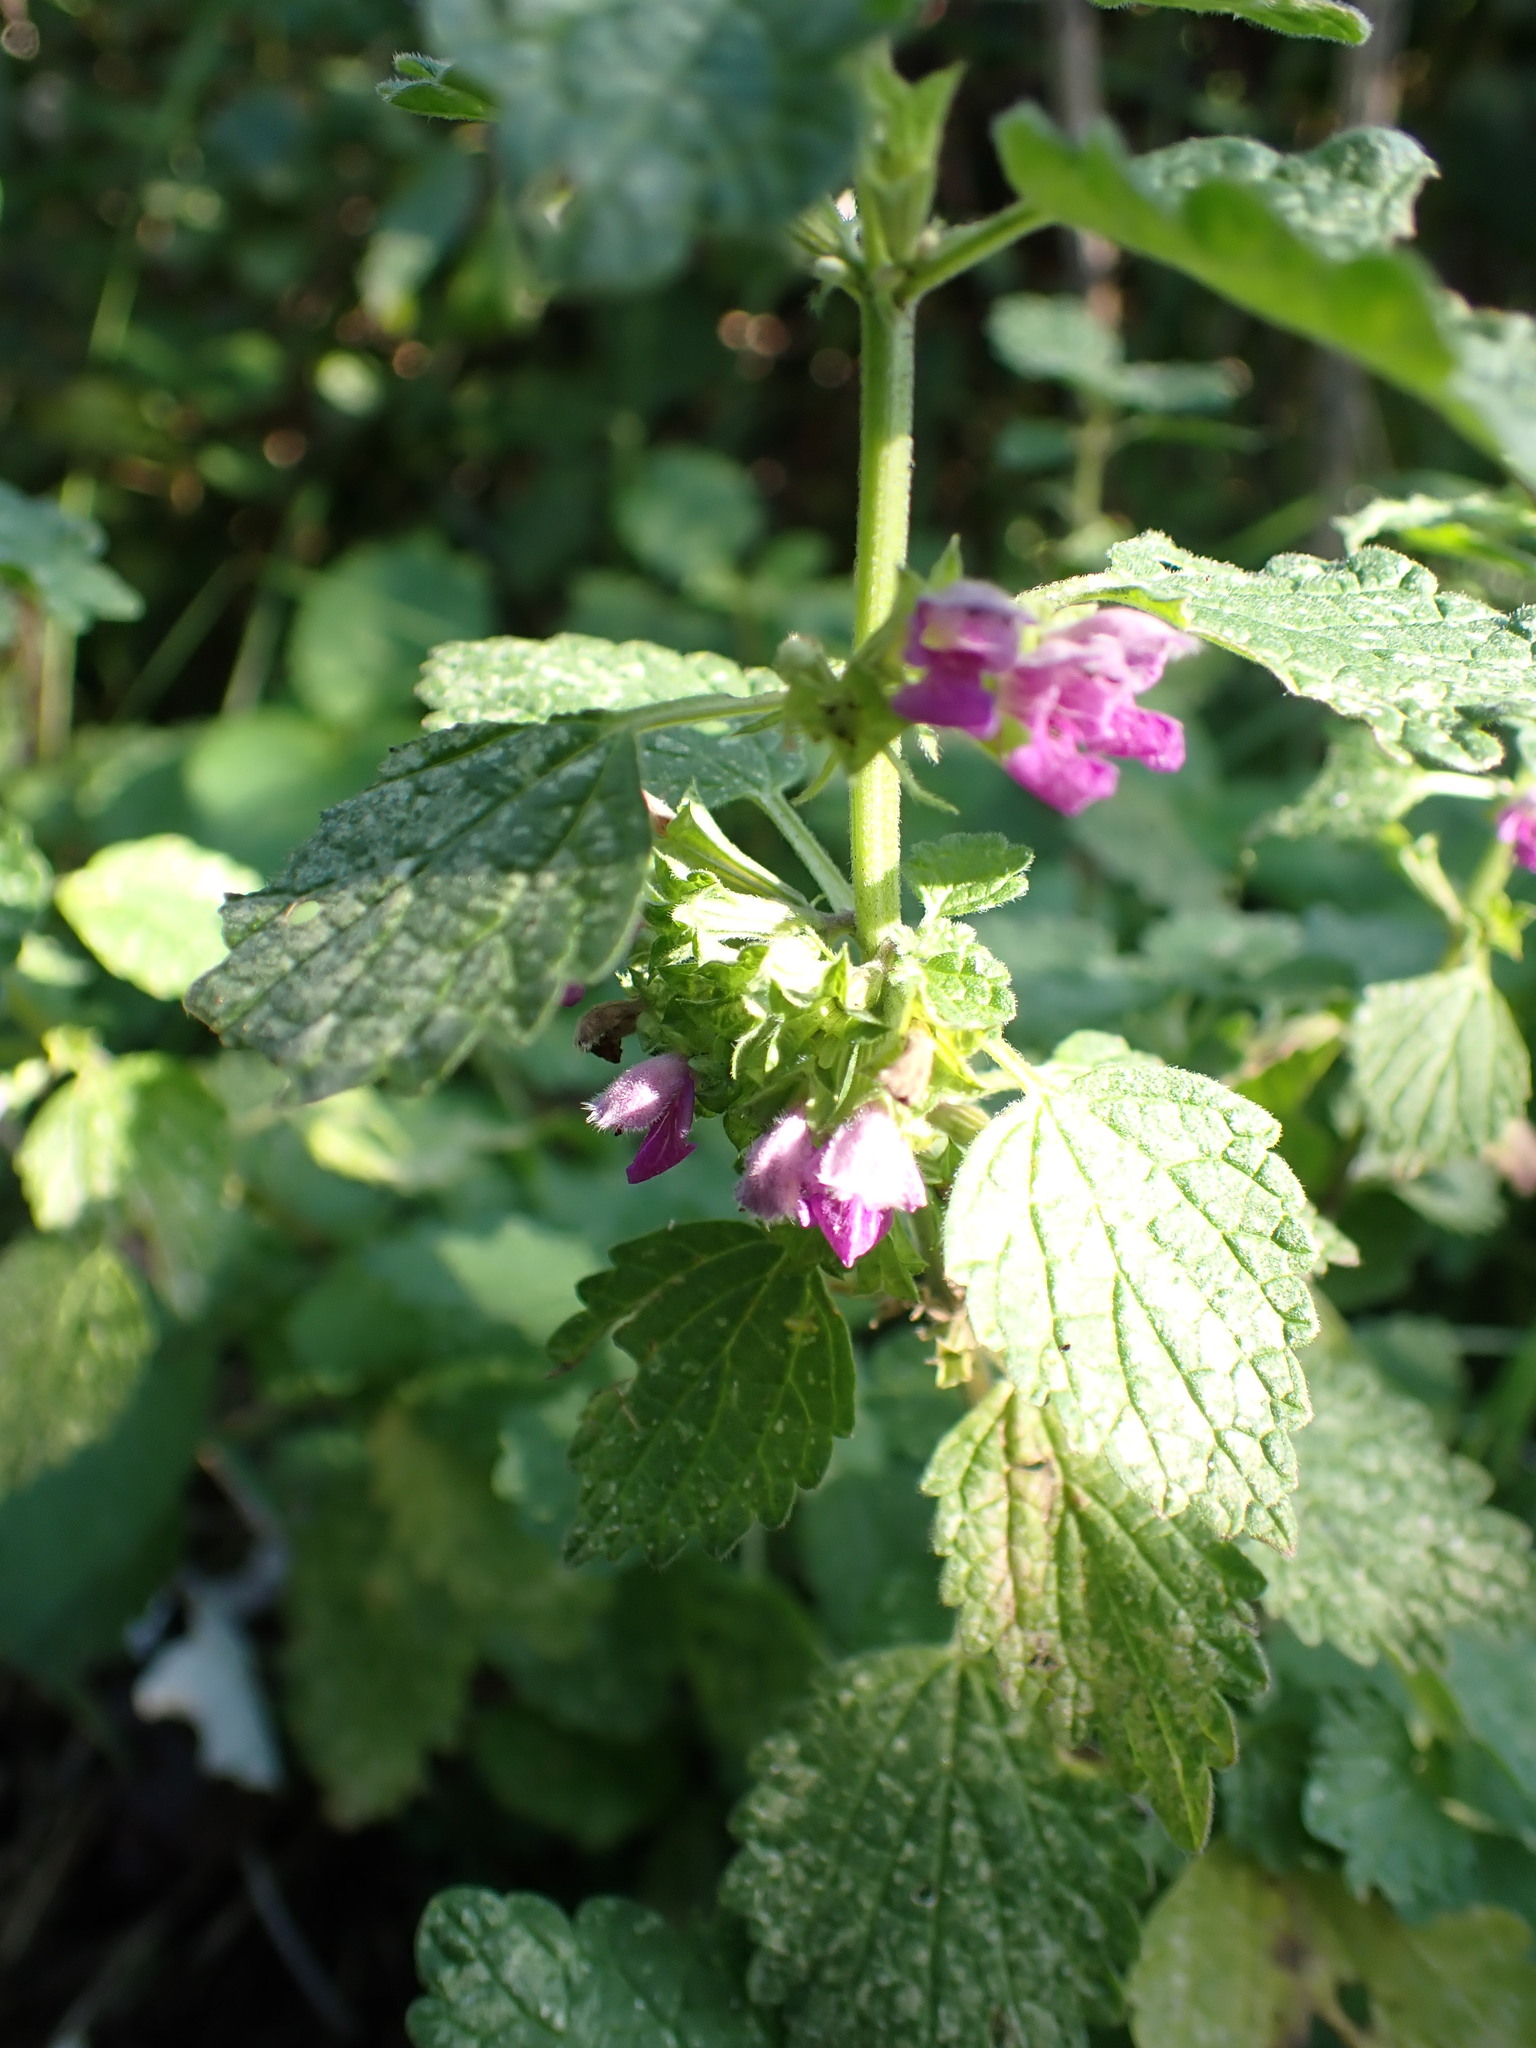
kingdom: Plantae
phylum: Tracheophyta
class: Magnoliopsida
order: Lamiales
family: Lamiaceae
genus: Ballota
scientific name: Ballota nigra
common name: Black horehound
